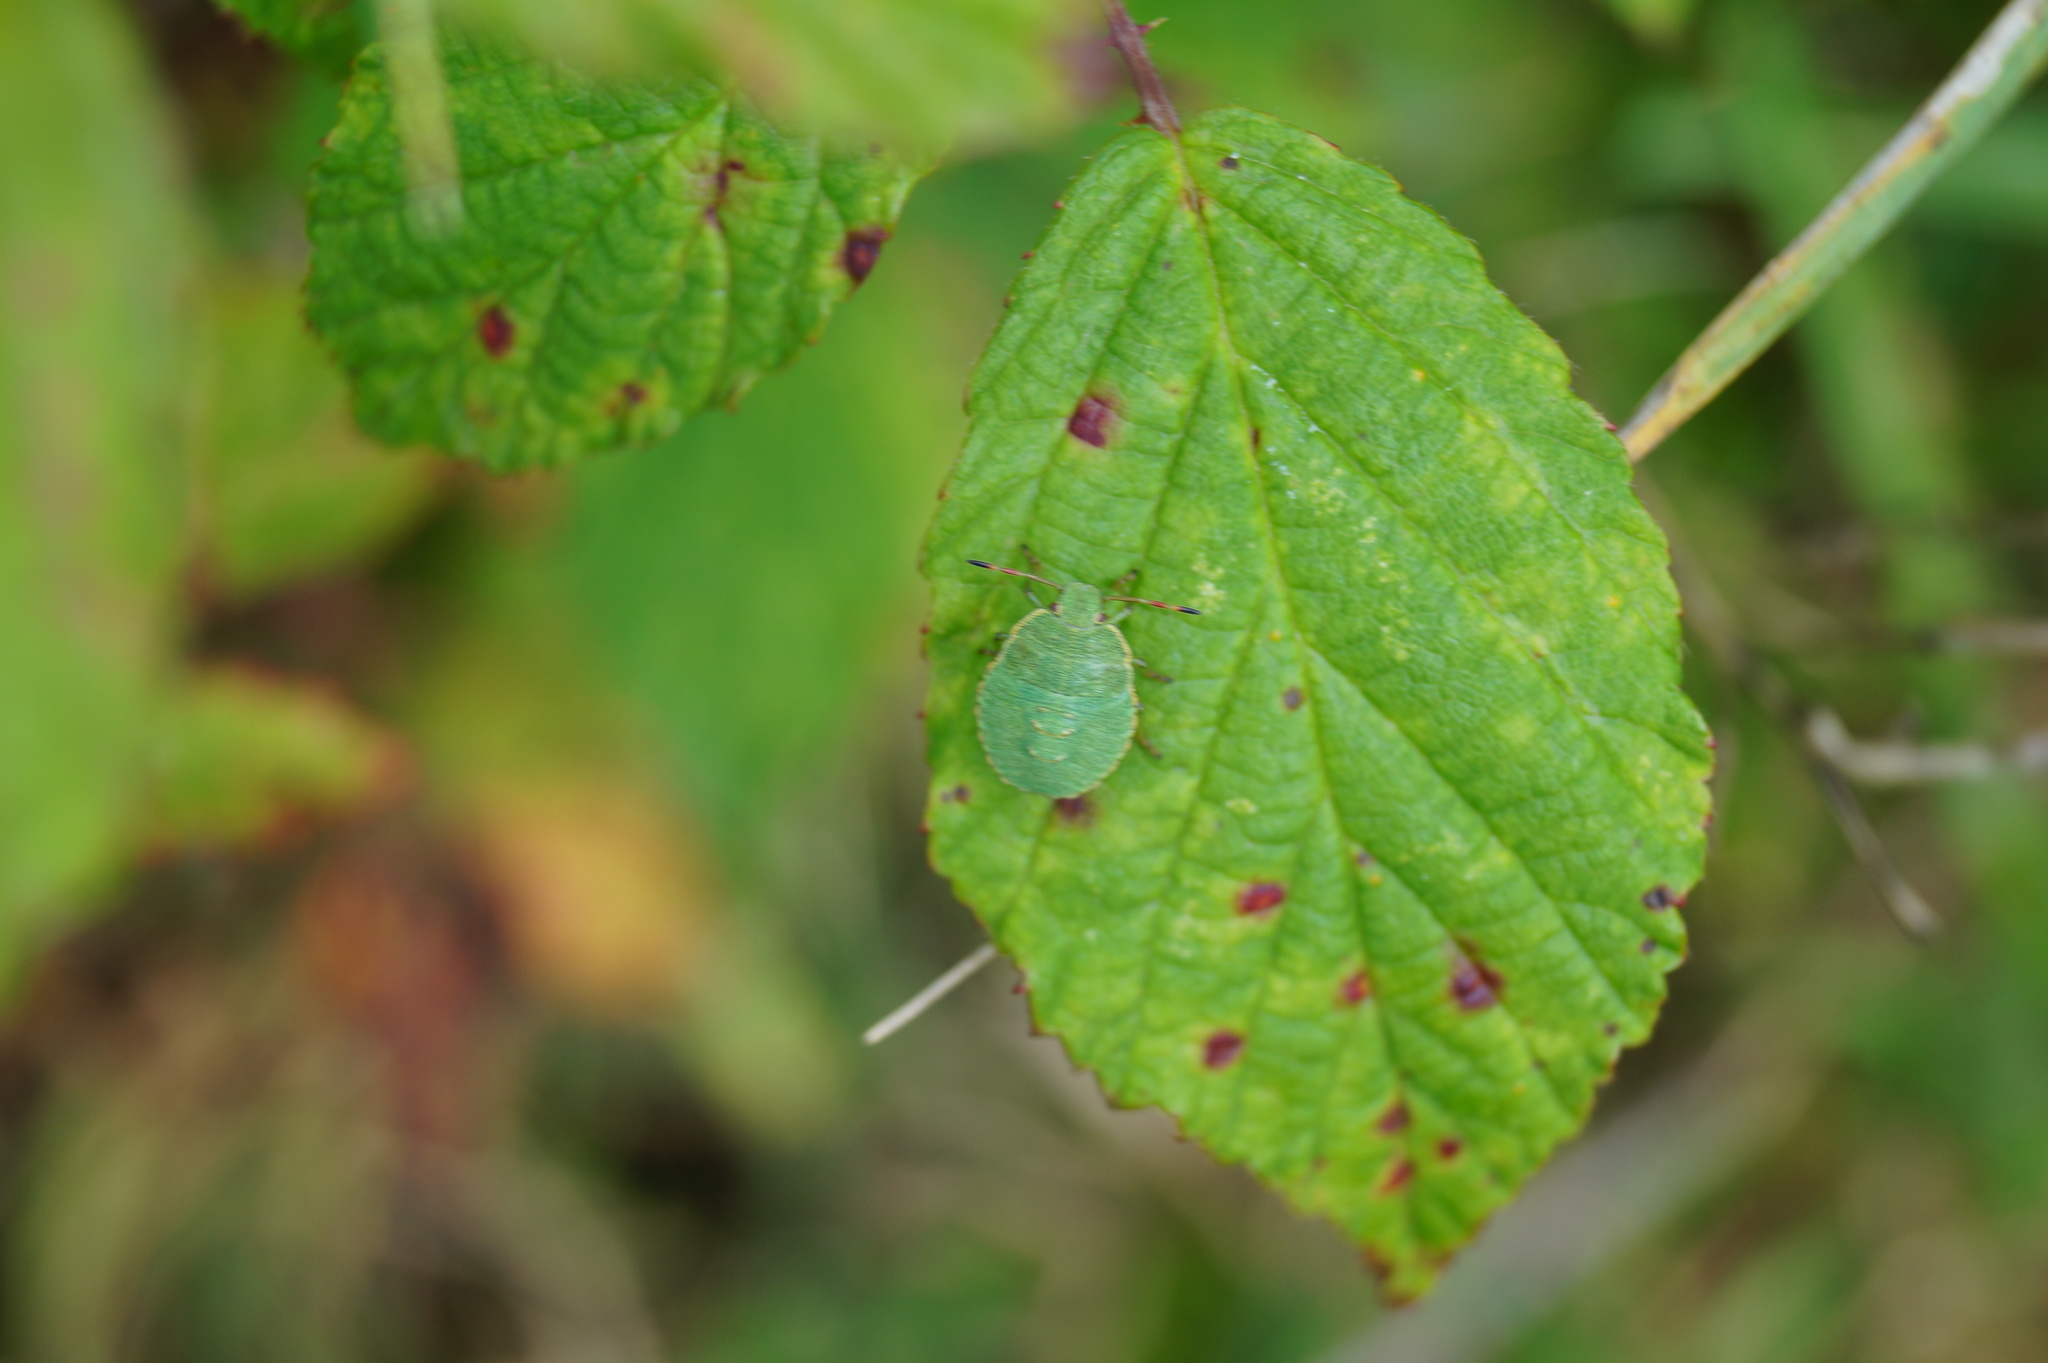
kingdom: Animalia
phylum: Arthropoda
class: Insecta
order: Hemiptera
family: Pentatomidae
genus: Palomena
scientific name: Palomena prasina
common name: Green shieldbug
